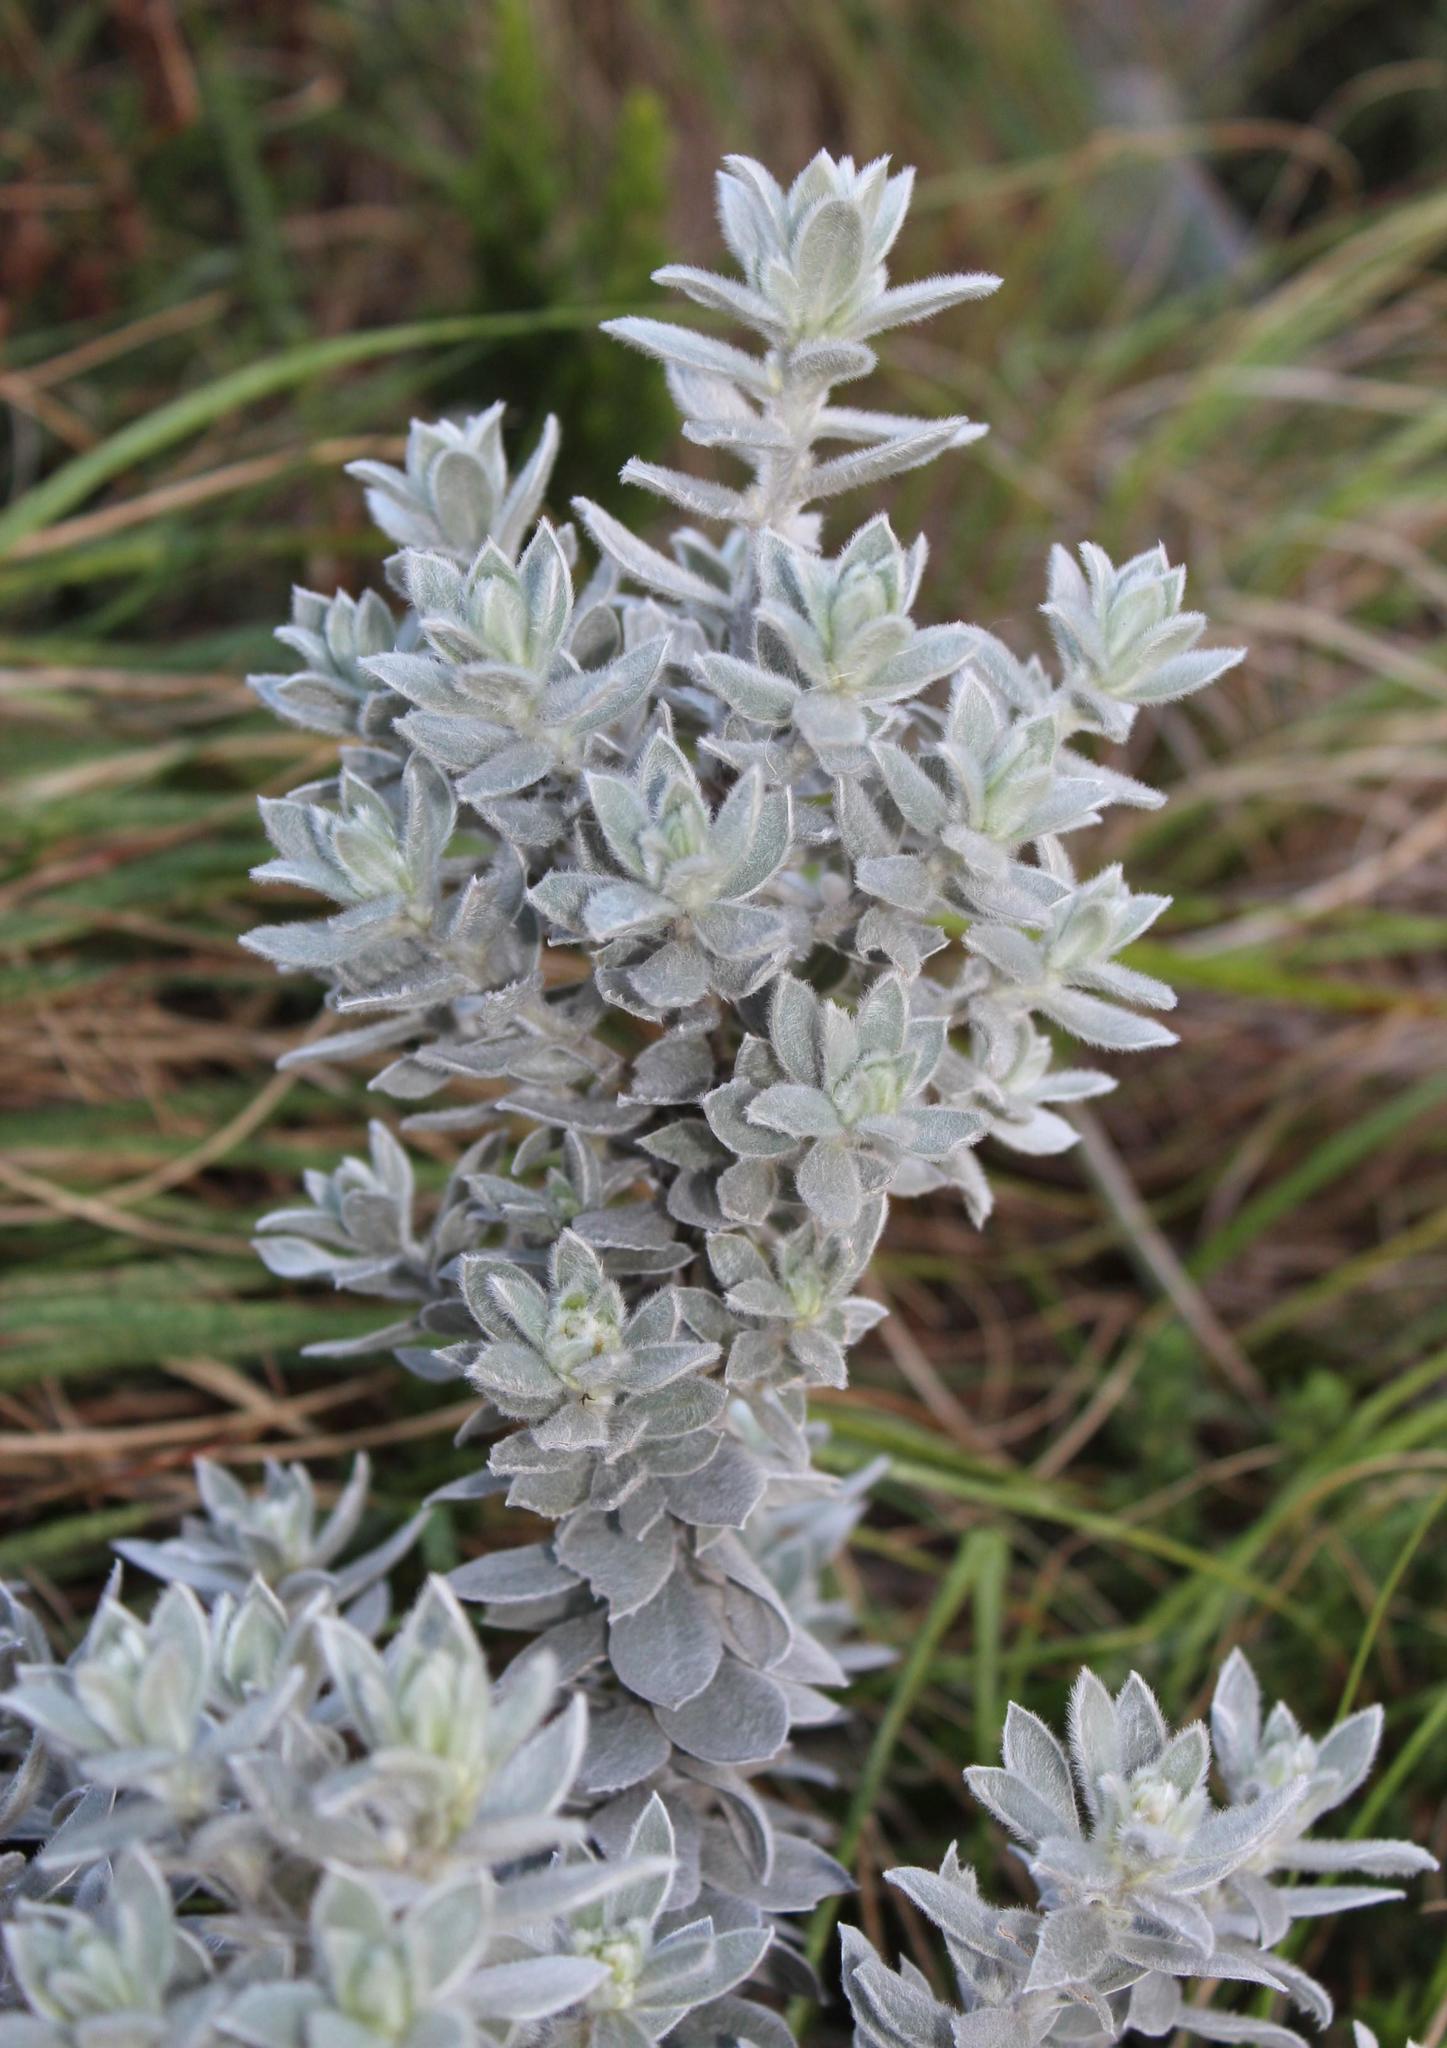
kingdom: Plantae
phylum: Tracheophyta
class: Magnoliopsida
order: Fabales
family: Fabaceae
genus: Xiphotheca
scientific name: Xiphotheca fruticosa
